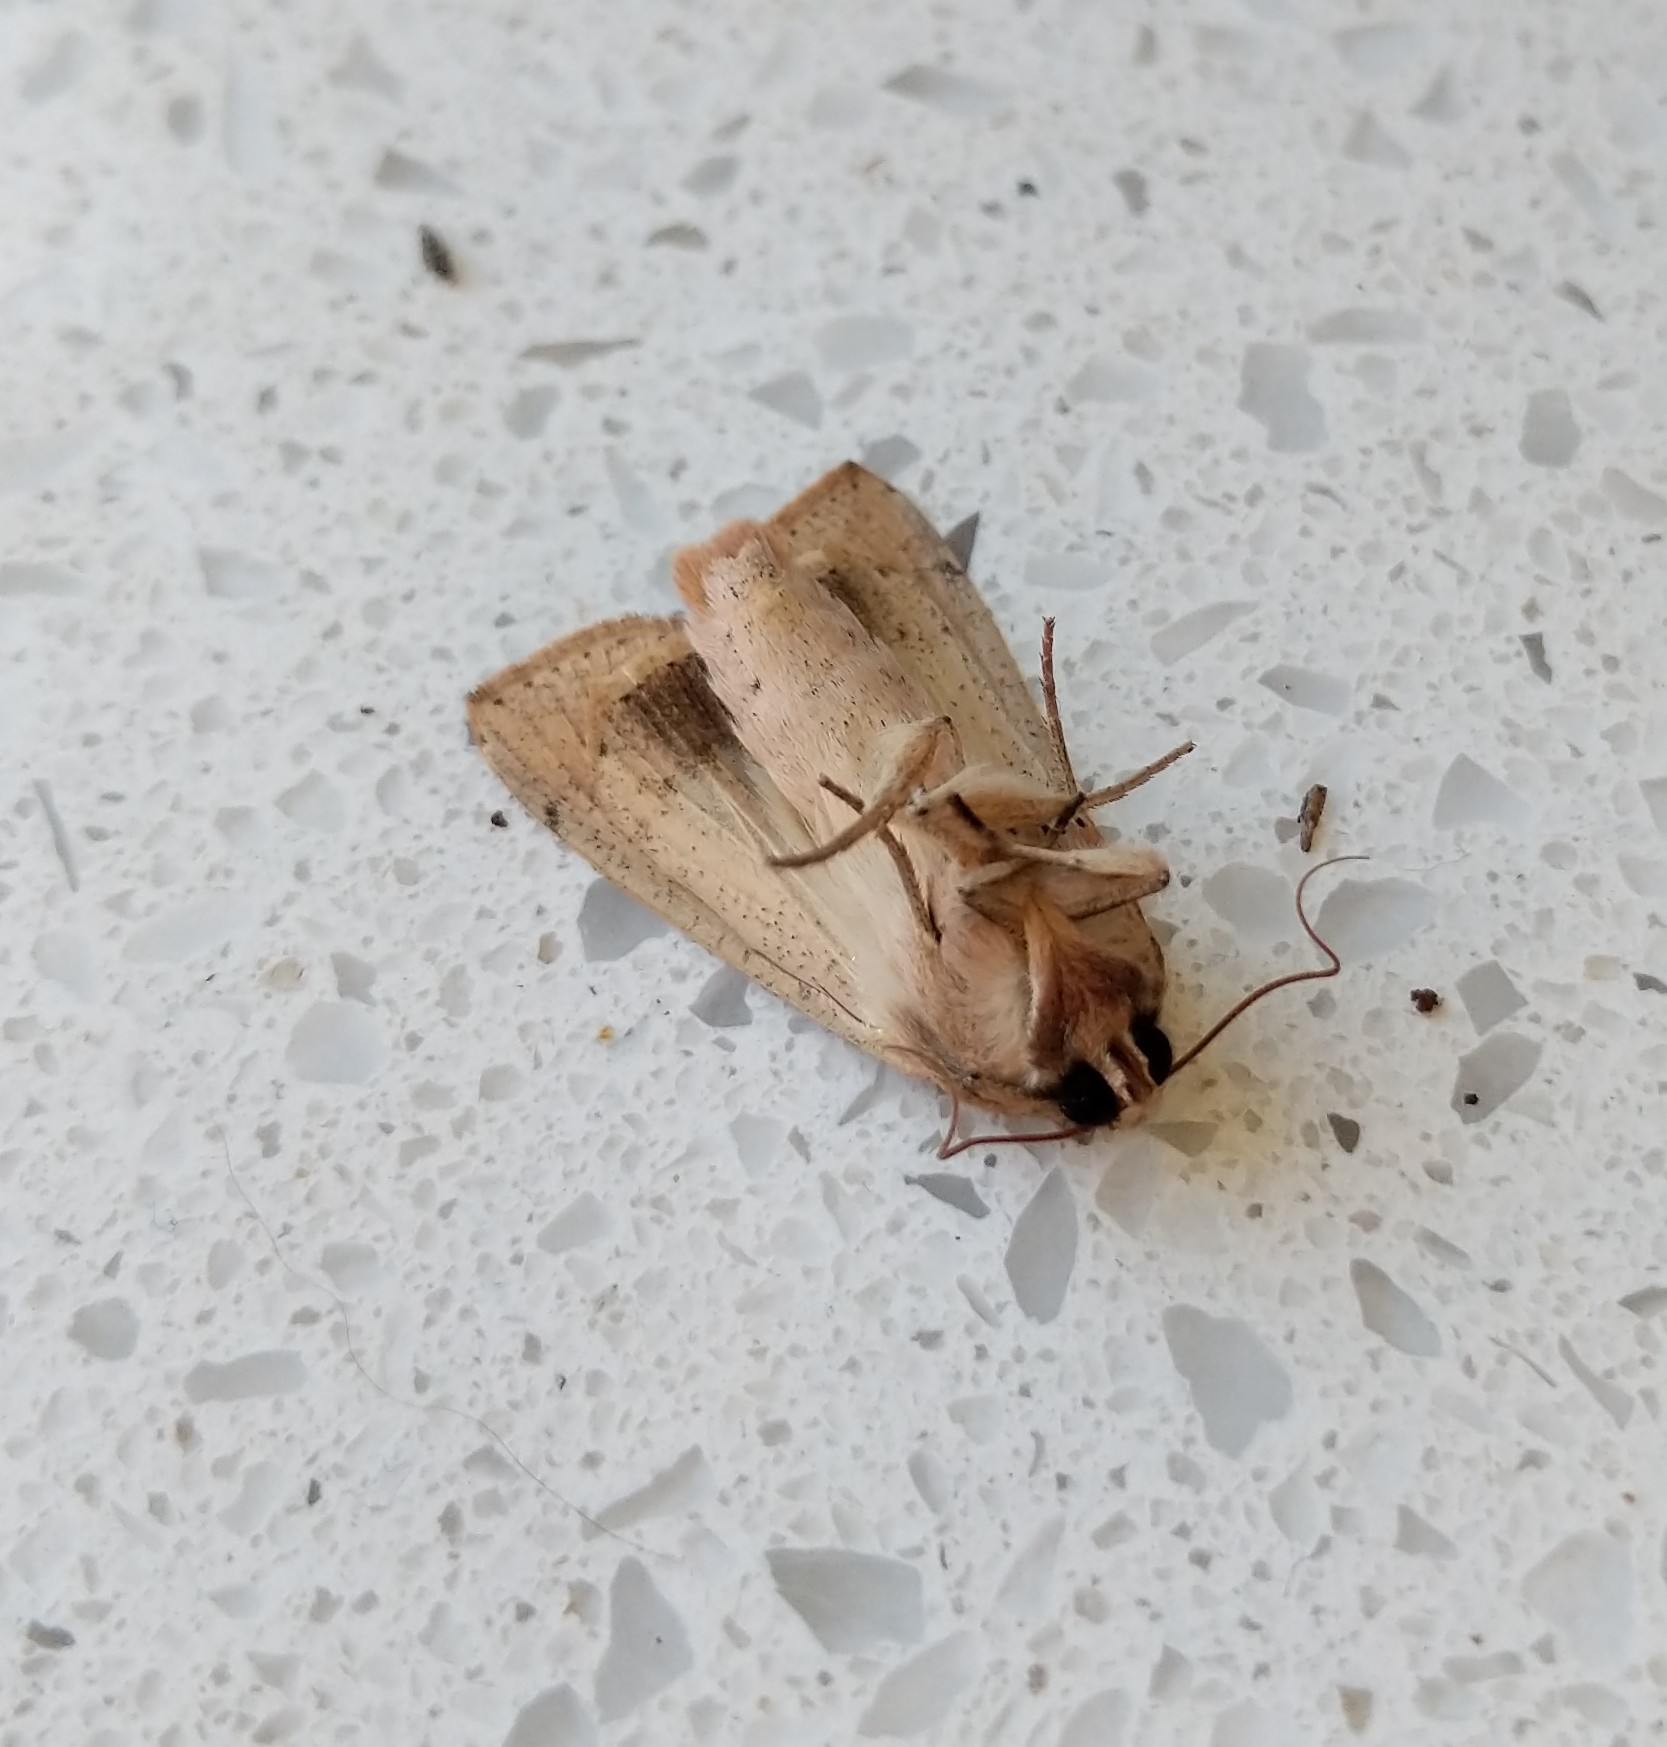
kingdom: Animalia
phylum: Arthropoda
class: Insecta
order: Lepidoptera
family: Noctuidae
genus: Mythimna
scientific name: Mythimna convecta
